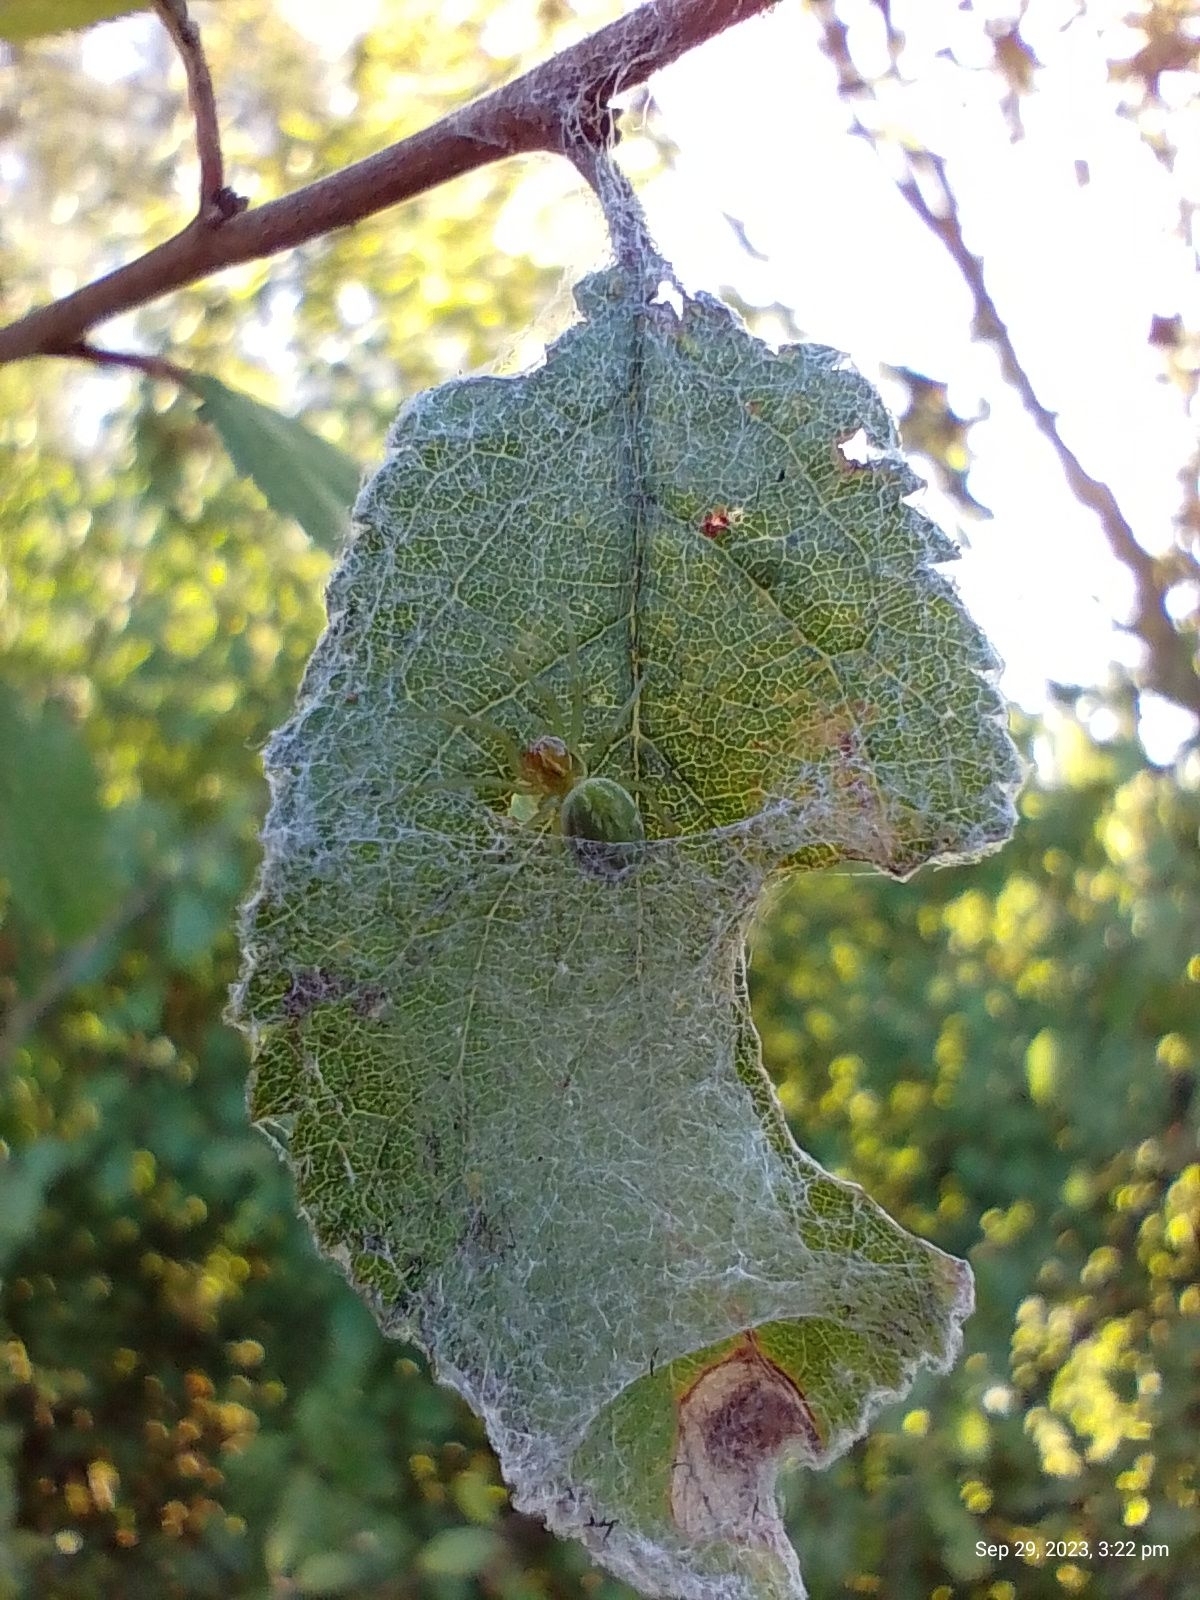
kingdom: Animalia
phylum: Arthropoda
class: Arachnida
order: Araneae
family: Dictynidae
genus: Nigma
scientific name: Nigma walckenaeri
